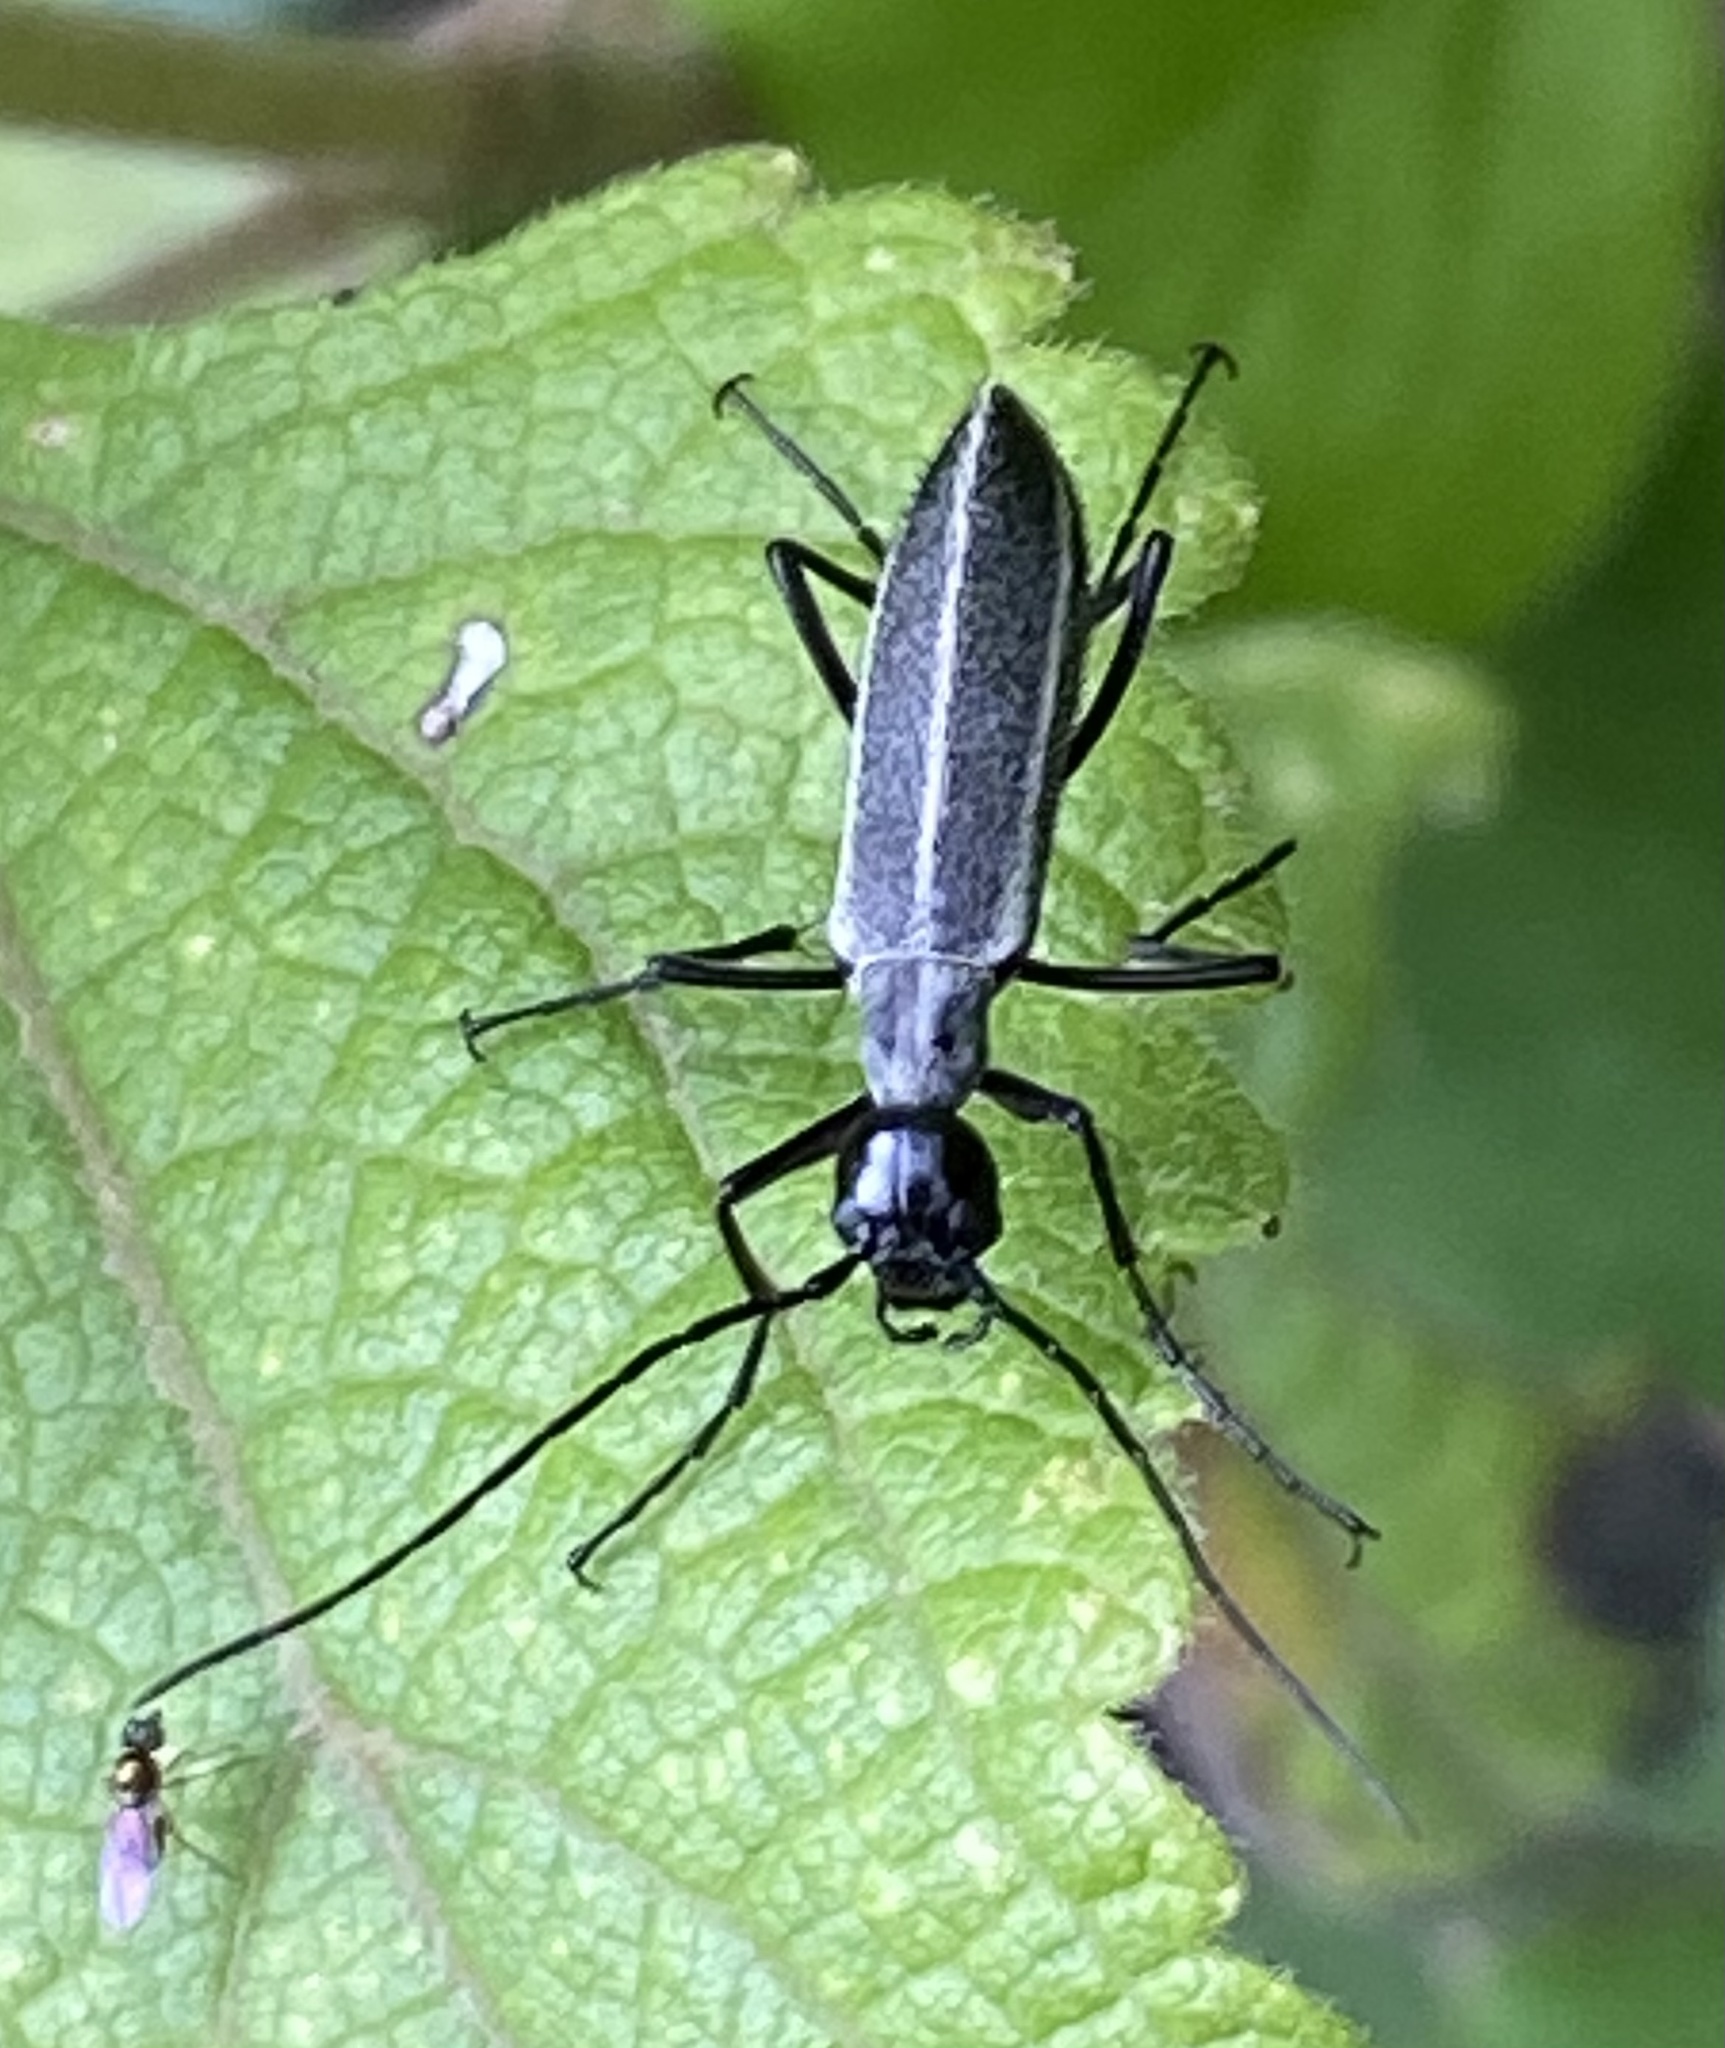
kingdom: Animalia
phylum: Arthropoda
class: Insecta
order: Coleoptera
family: Meloidae
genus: Epicauta
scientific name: Epicauta
